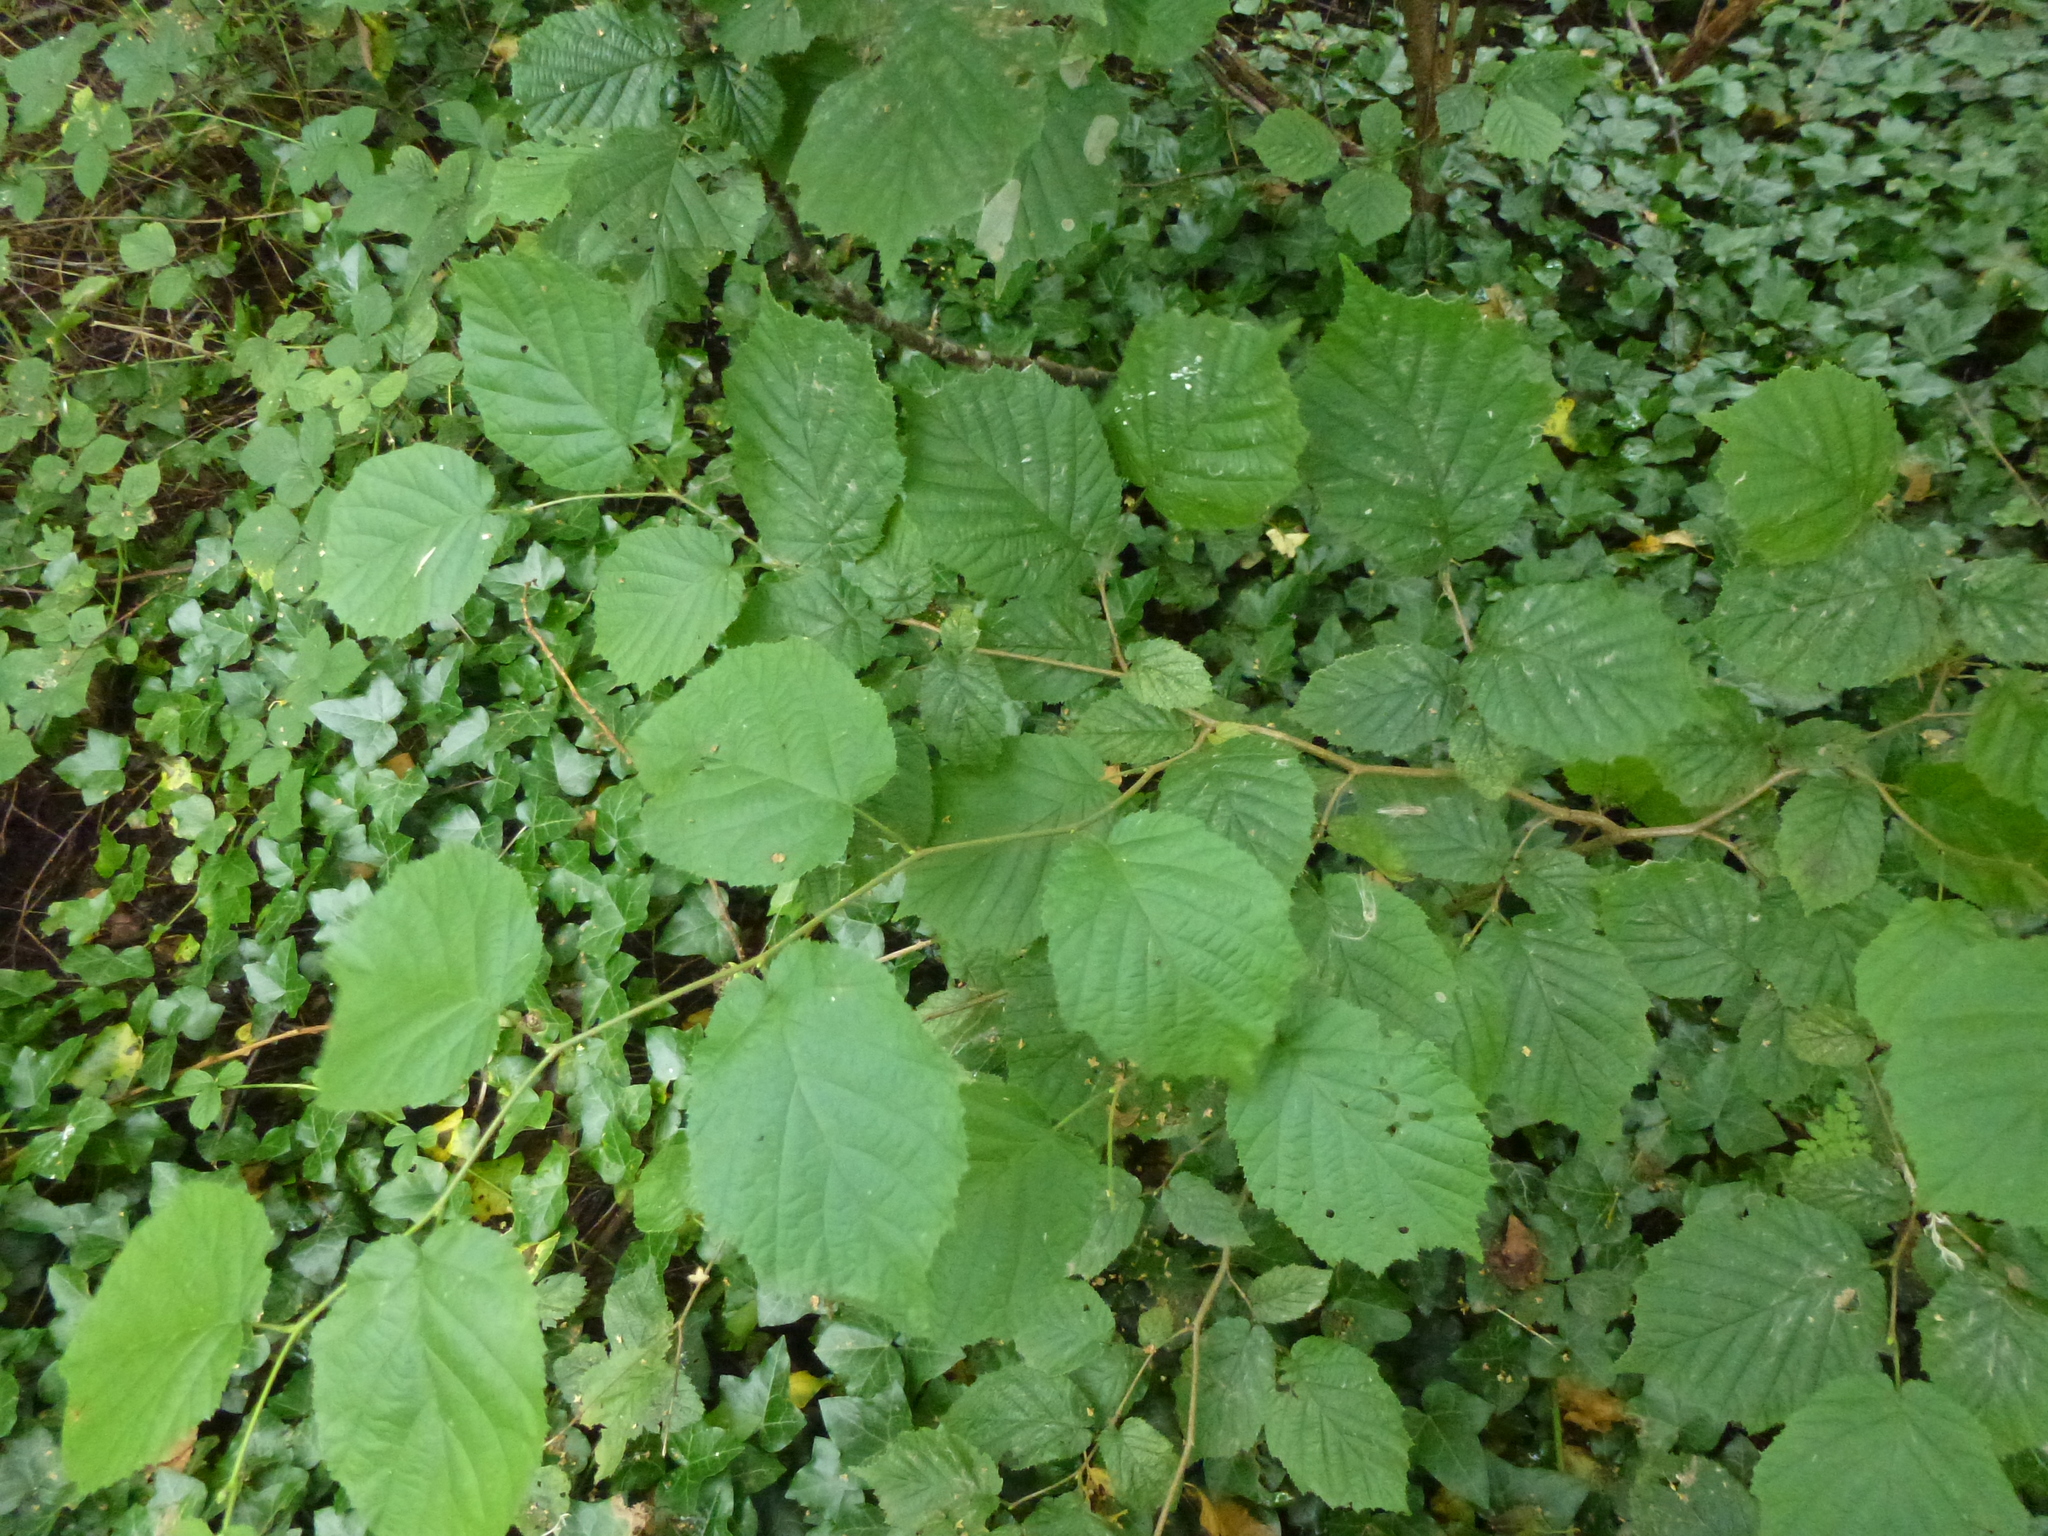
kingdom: Plantae
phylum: Tracheophyta
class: Magnoliopsida
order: Fagales
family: Betulaceae
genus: Corylus
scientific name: Corylus avellana
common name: European hazel
